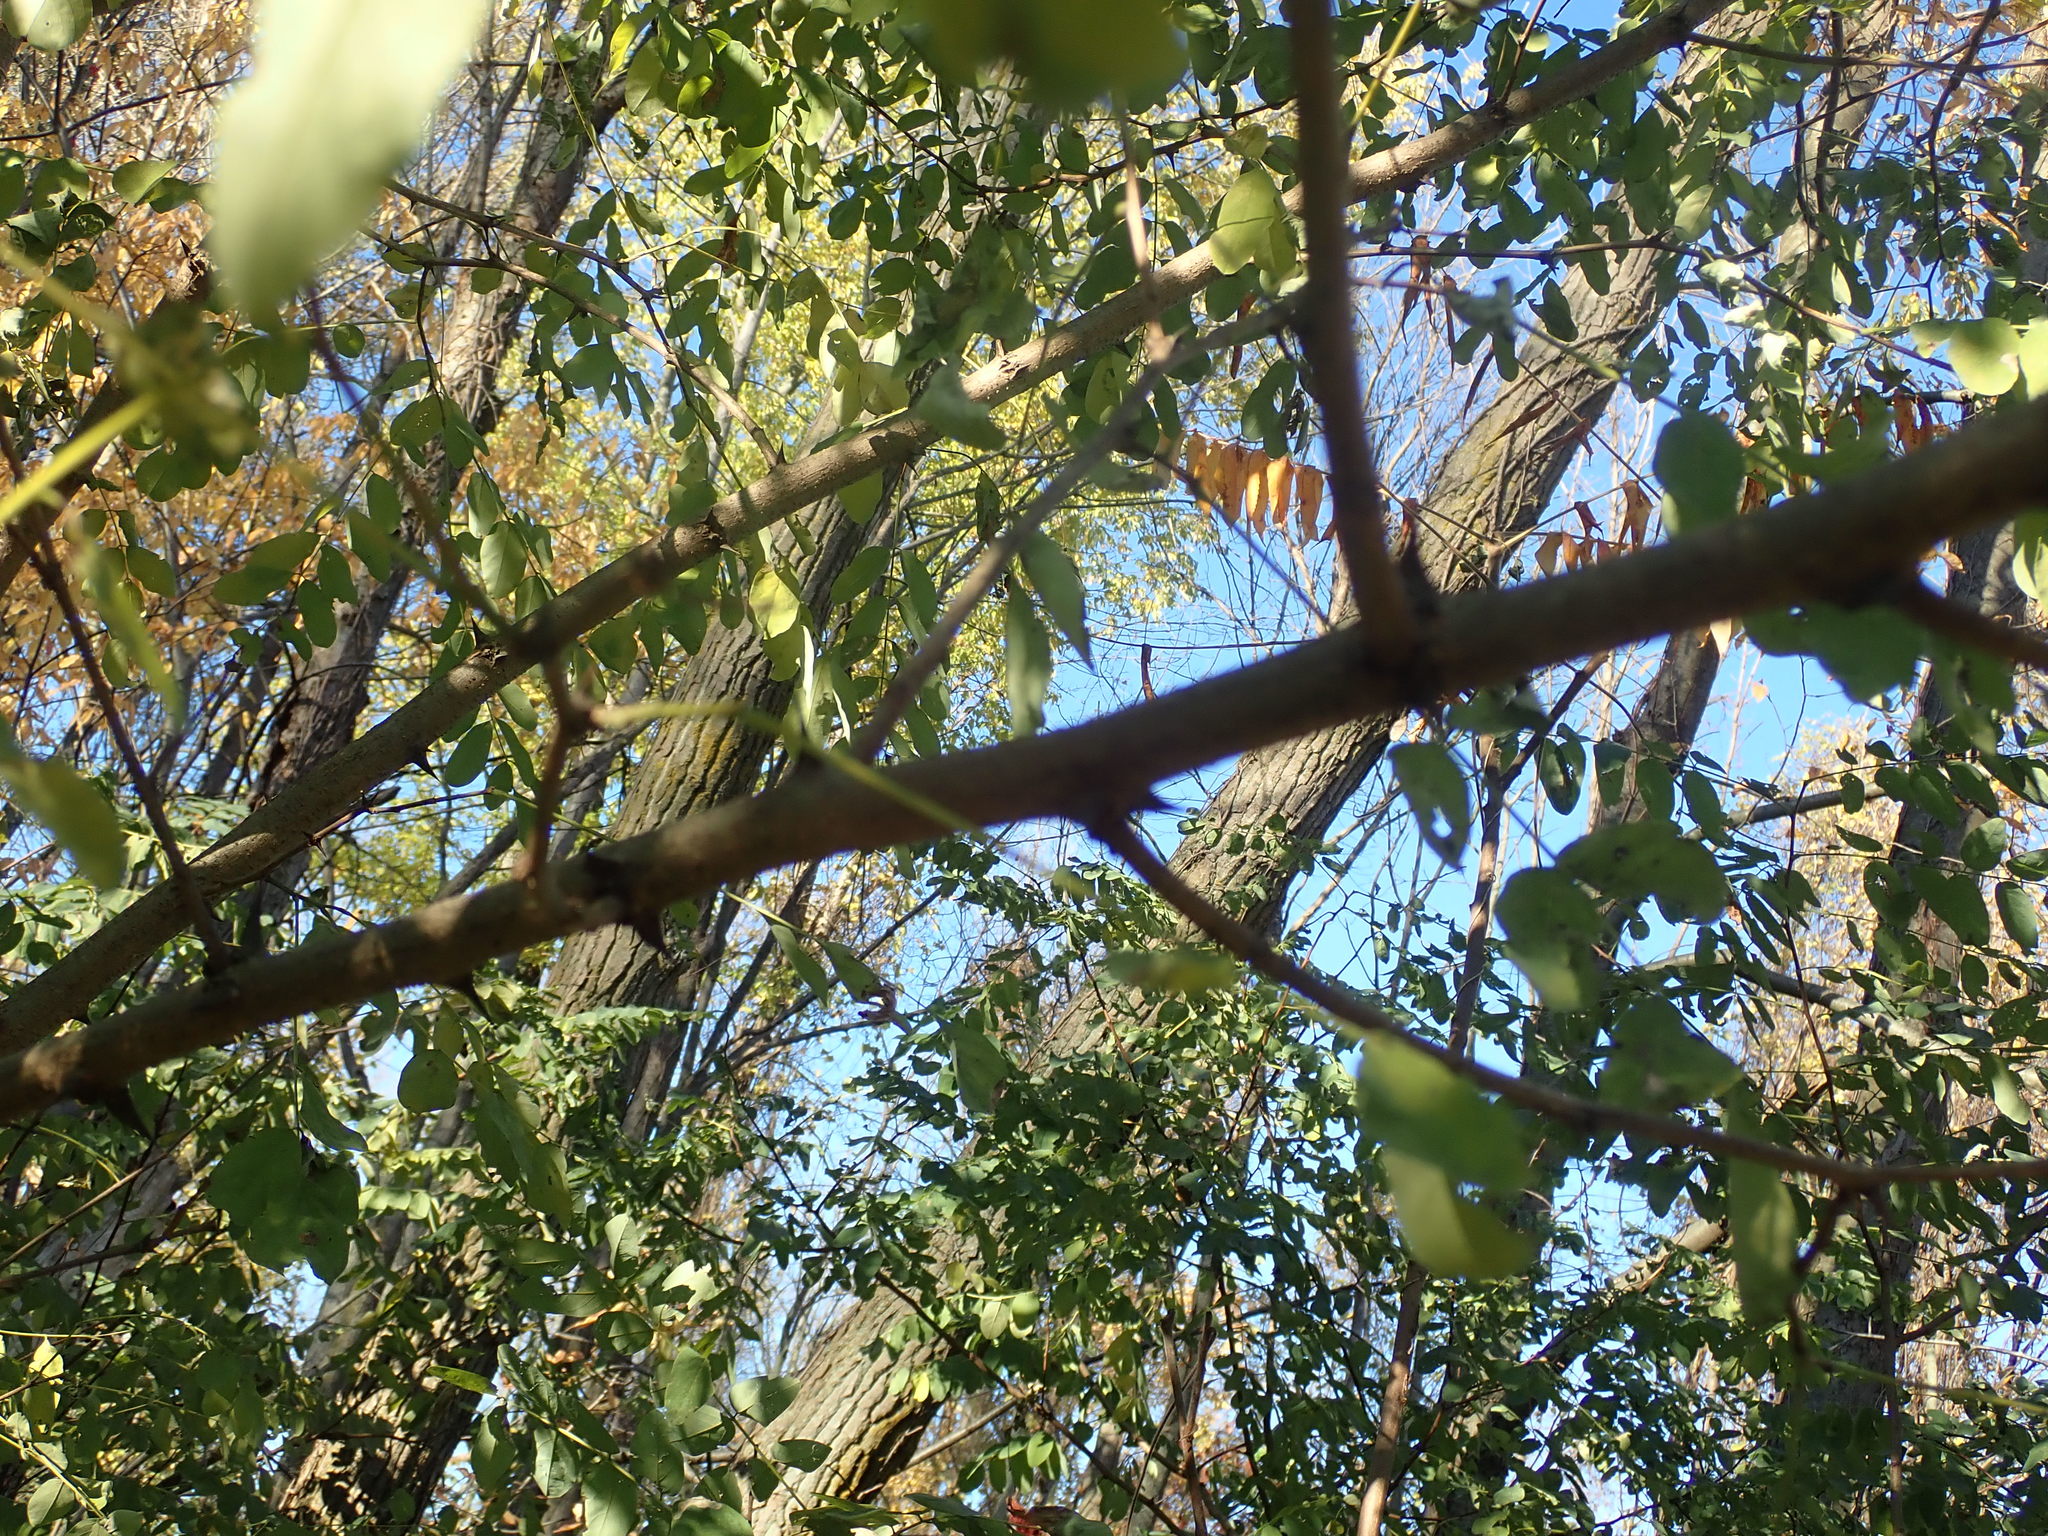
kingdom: Plantae
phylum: Tracheophyta
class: Magnoliopsida
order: Fabales
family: Fabaceae
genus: Robinia
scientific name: Robinia pseudoacacia
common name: Black locust
